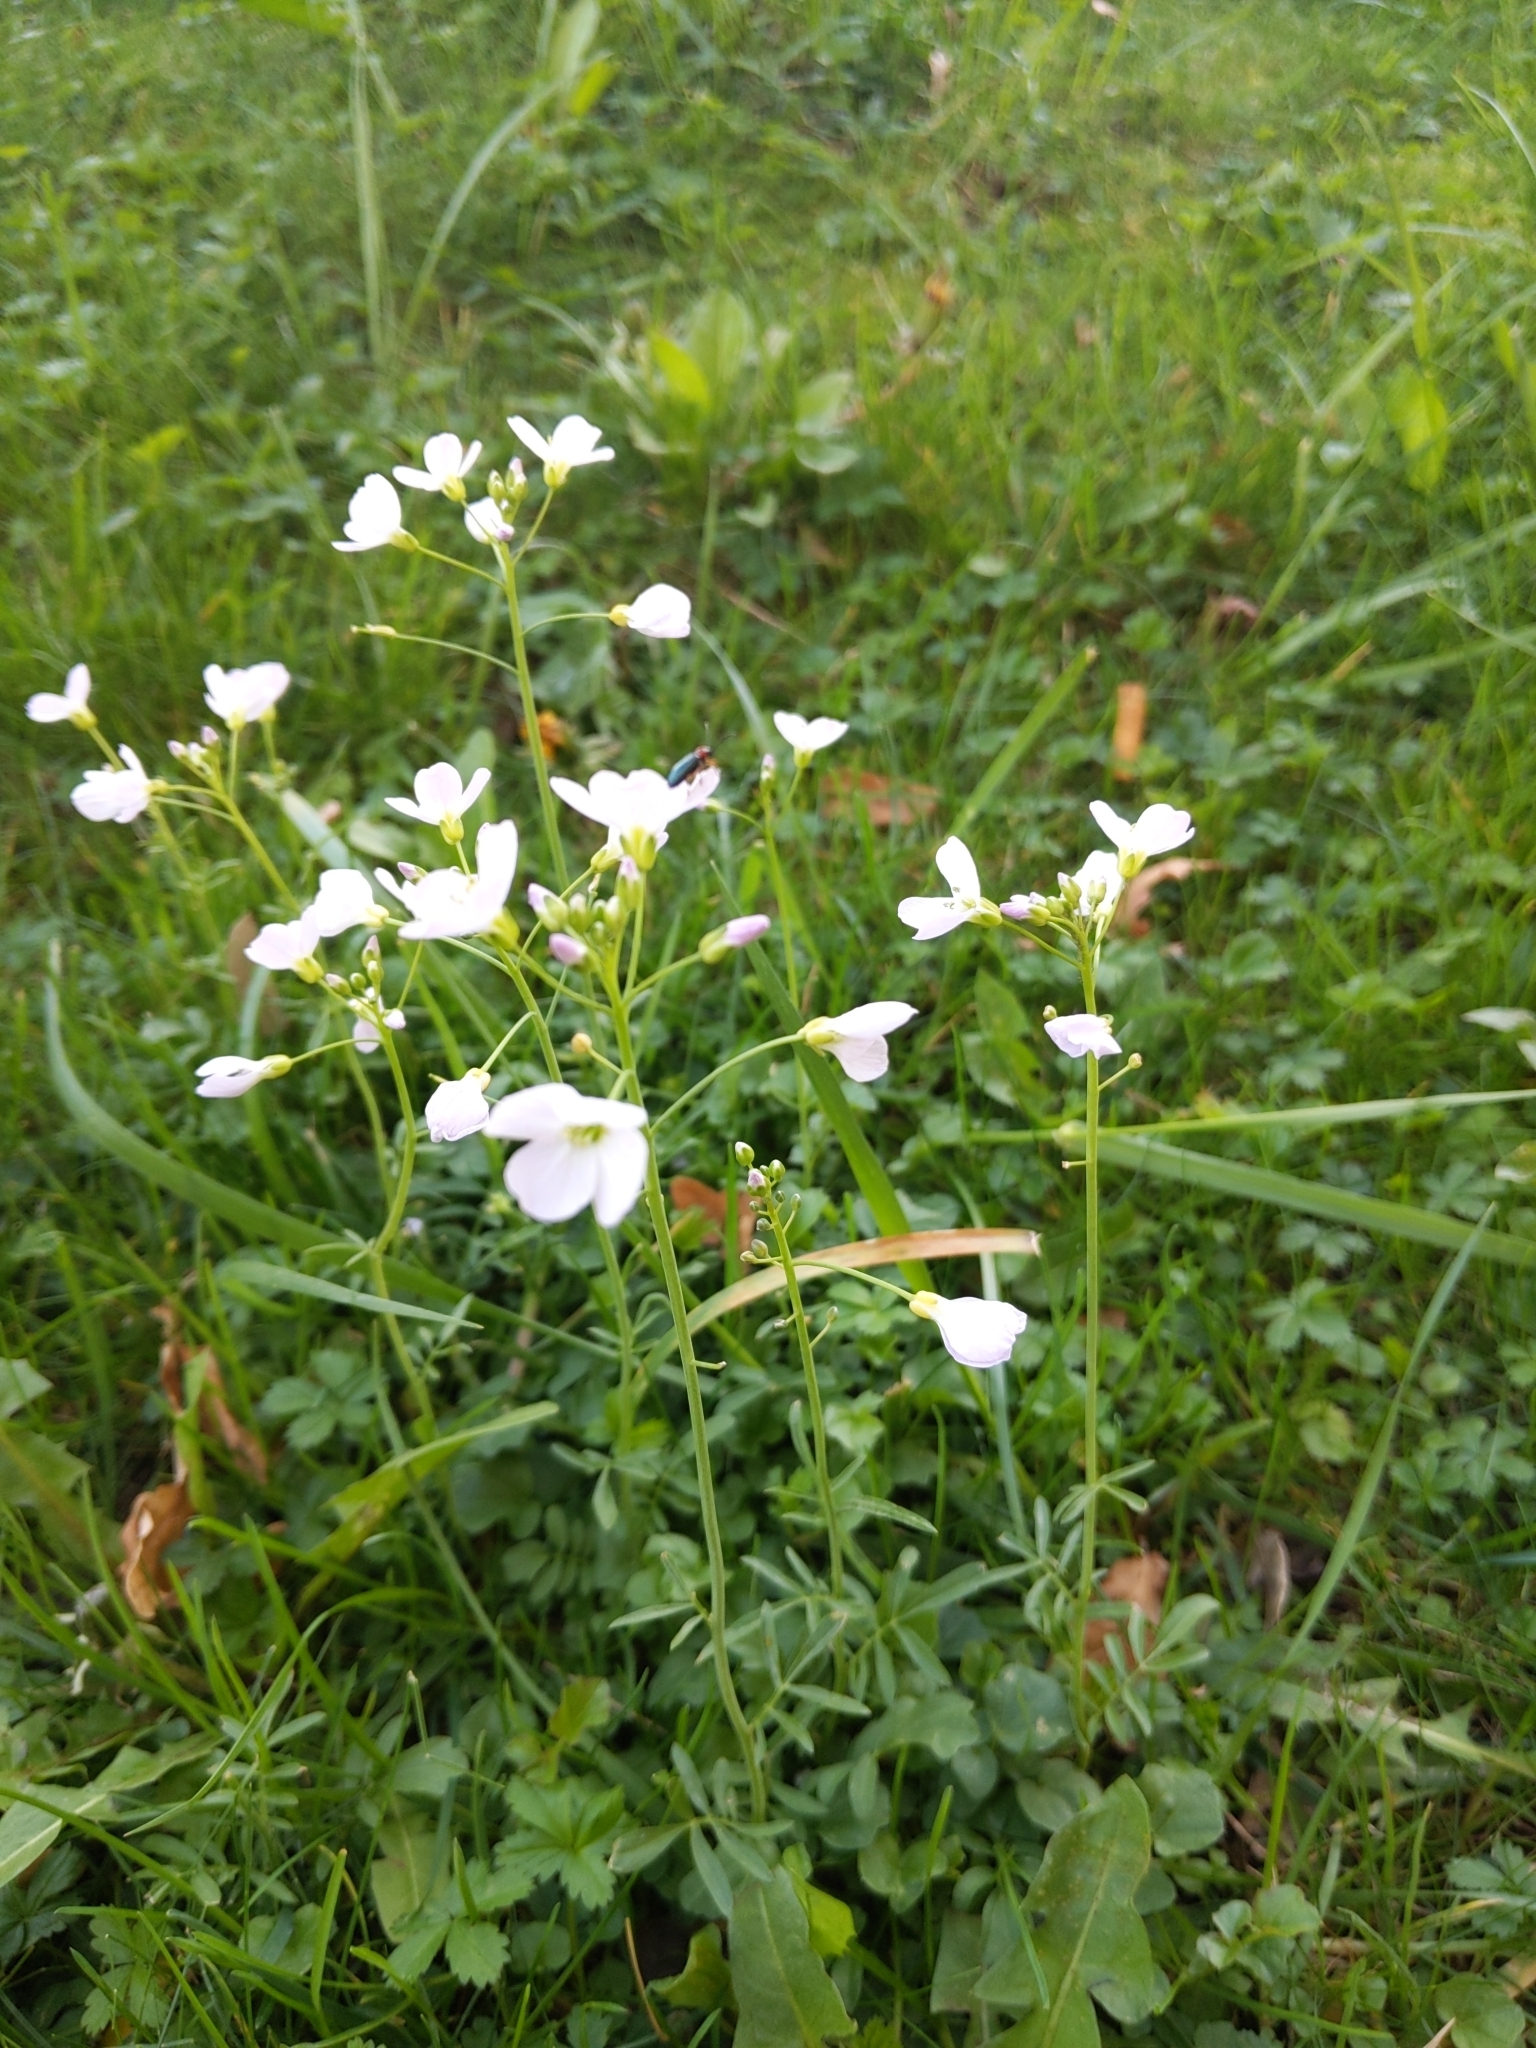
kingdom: Plantae
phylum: Tracheophyta
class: Magnoliopsida
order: Brassicales
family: Brassicaceae
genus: Cardamine
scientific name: Cardamine pratensis
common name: Cuckoo flower
